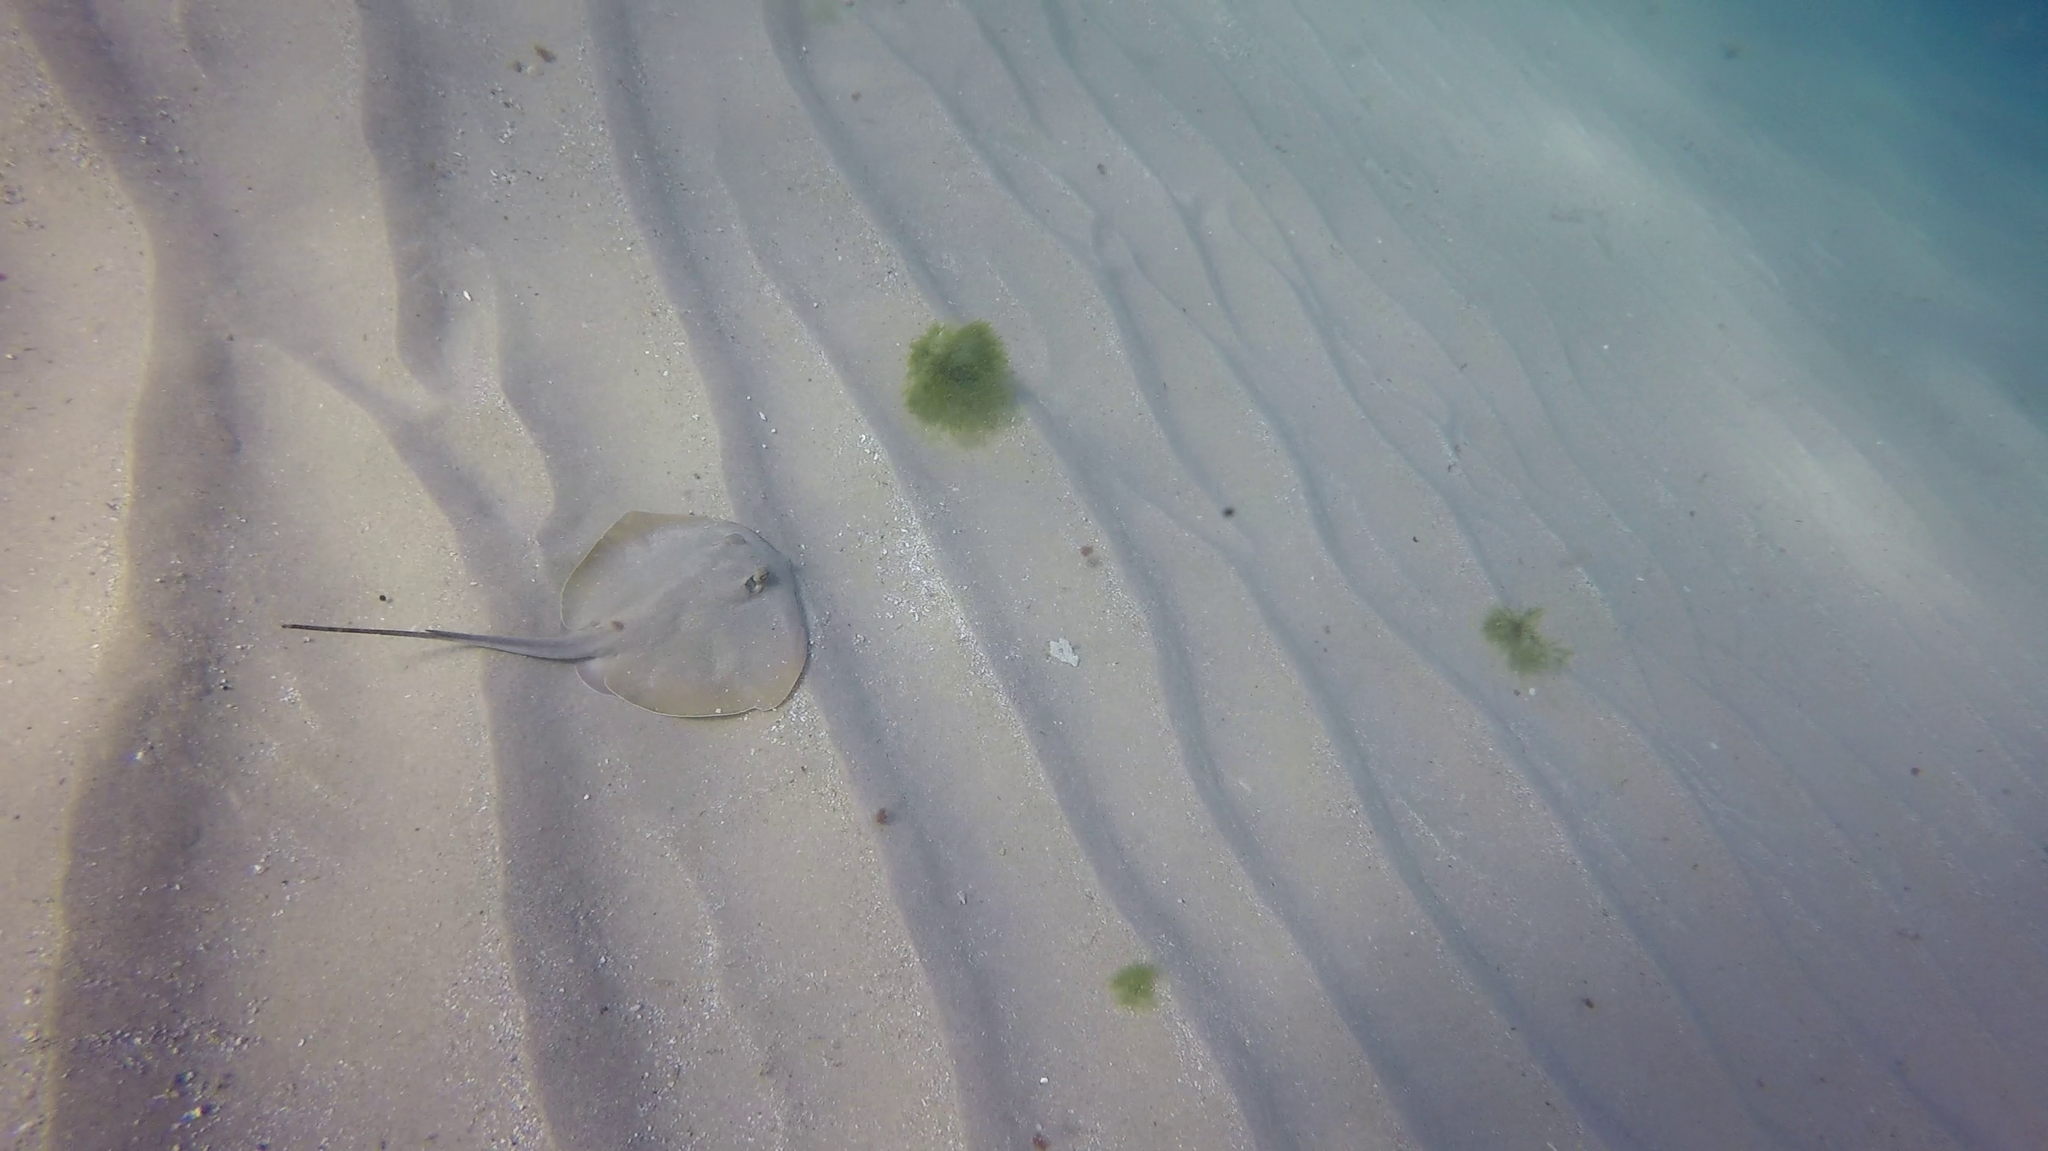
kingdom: Animalia
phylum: Chordata
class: Elasmobranchii
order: Myliobatiformes
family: Dasyatidae
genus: Dasyatis
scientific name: Dasyatis pastinaca
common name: Common stingray
